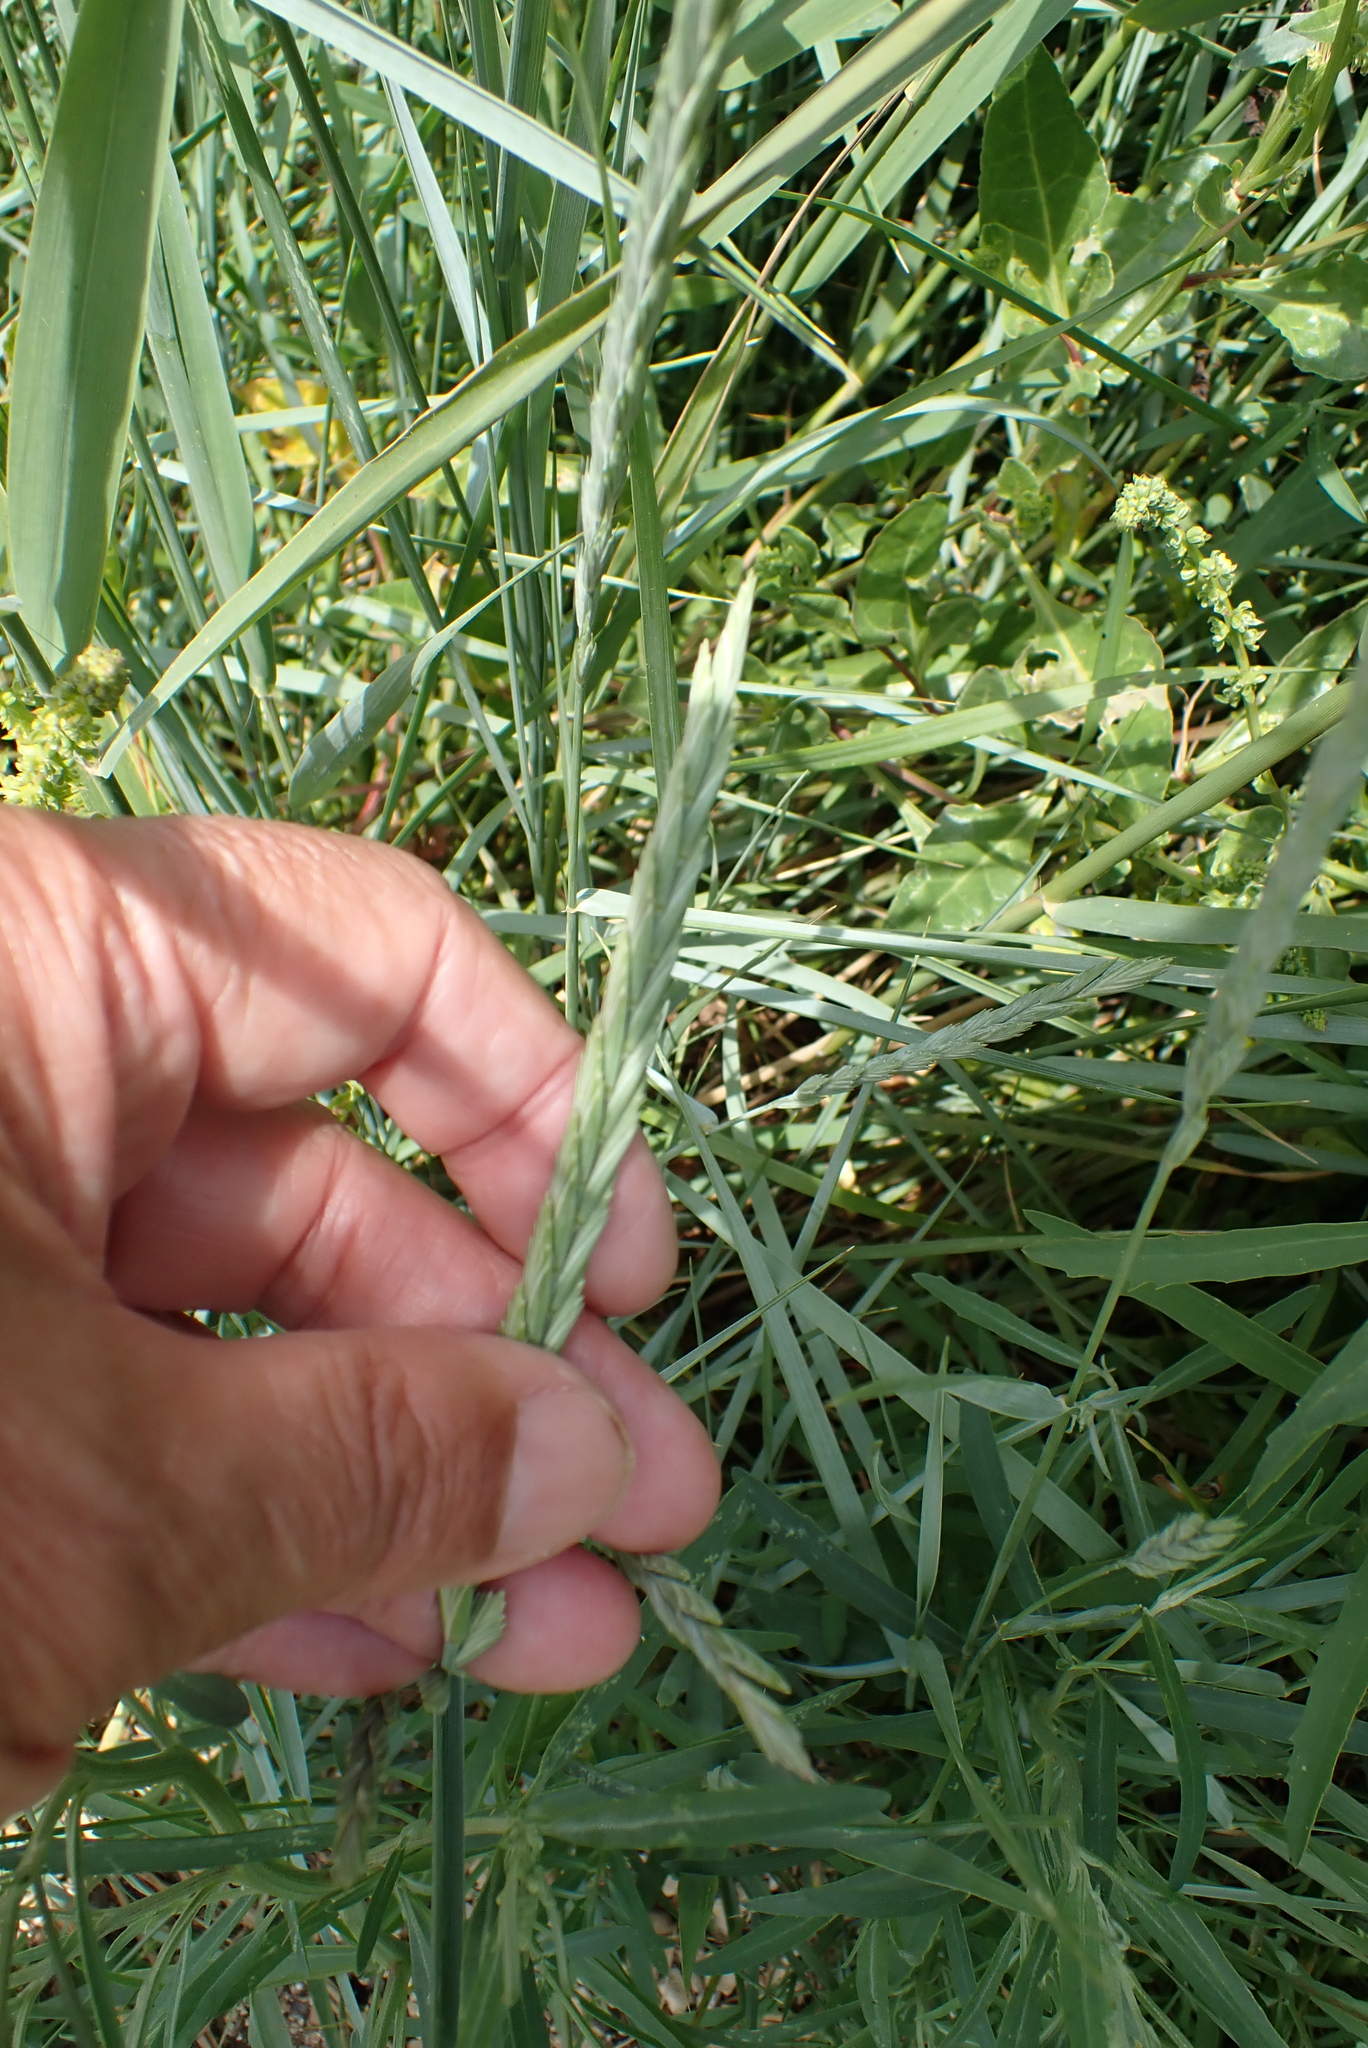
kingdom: Plantae
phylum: Tracheophyta
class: Liliopsida
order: Poales
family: Poaceae
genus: Elymus
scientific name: Elymus athericus
